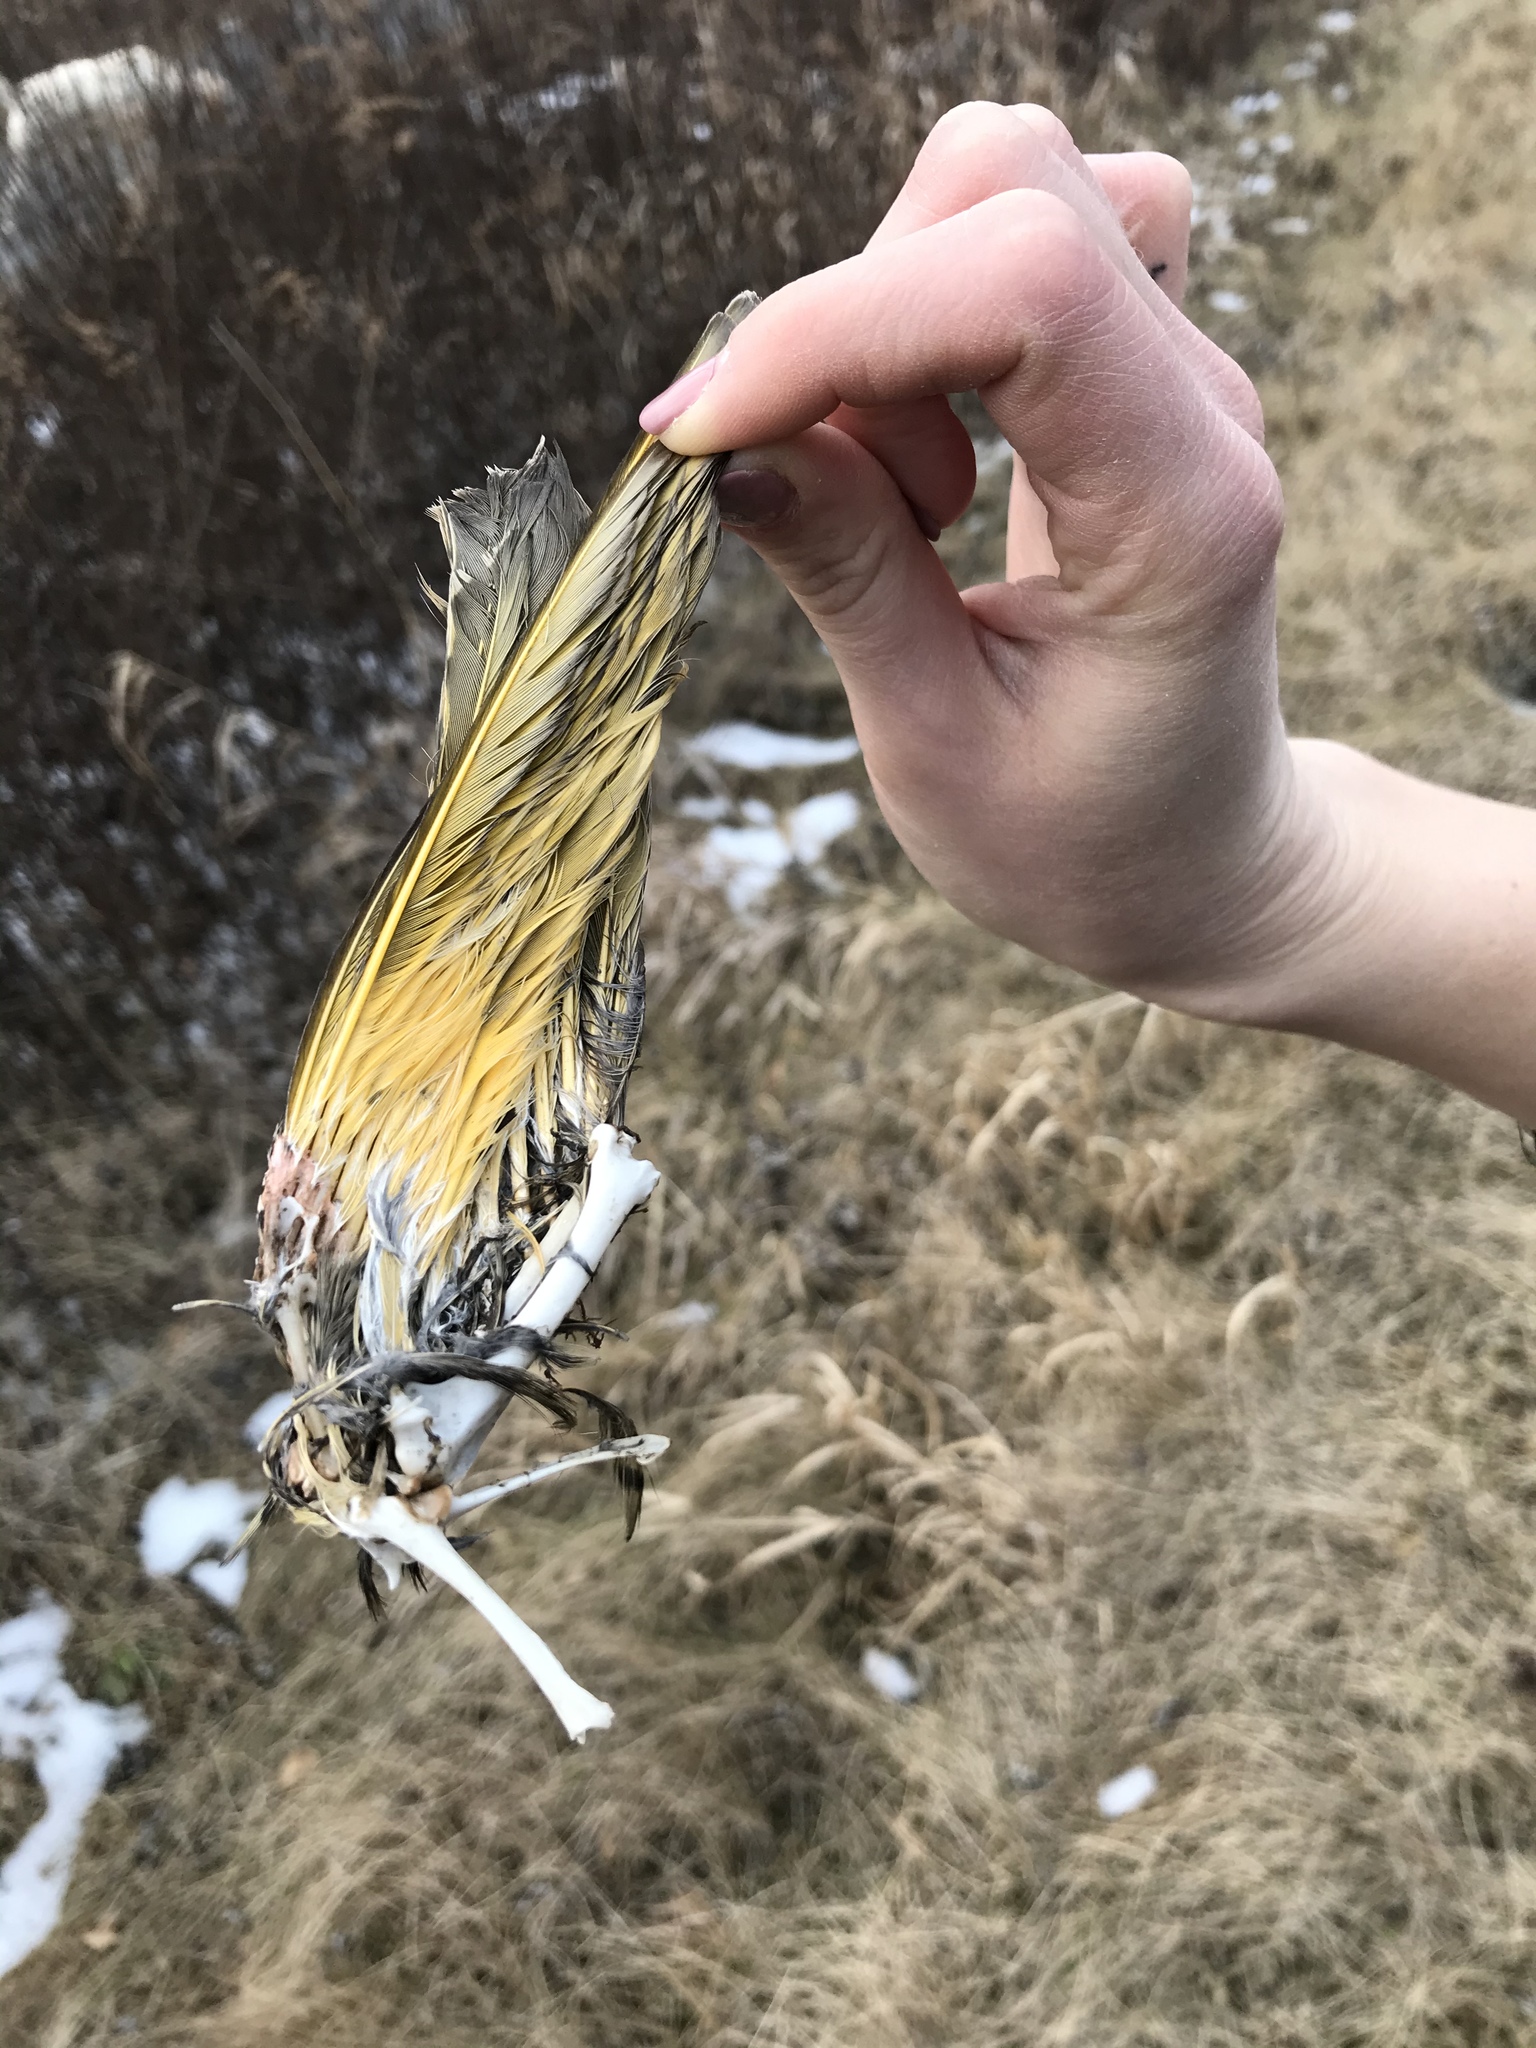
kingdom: Animalia
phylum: Chordata
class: Aves
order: Piciformes
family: Picidae
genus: Colaptes
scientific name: Colaptes auratus
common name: Northern flicker
